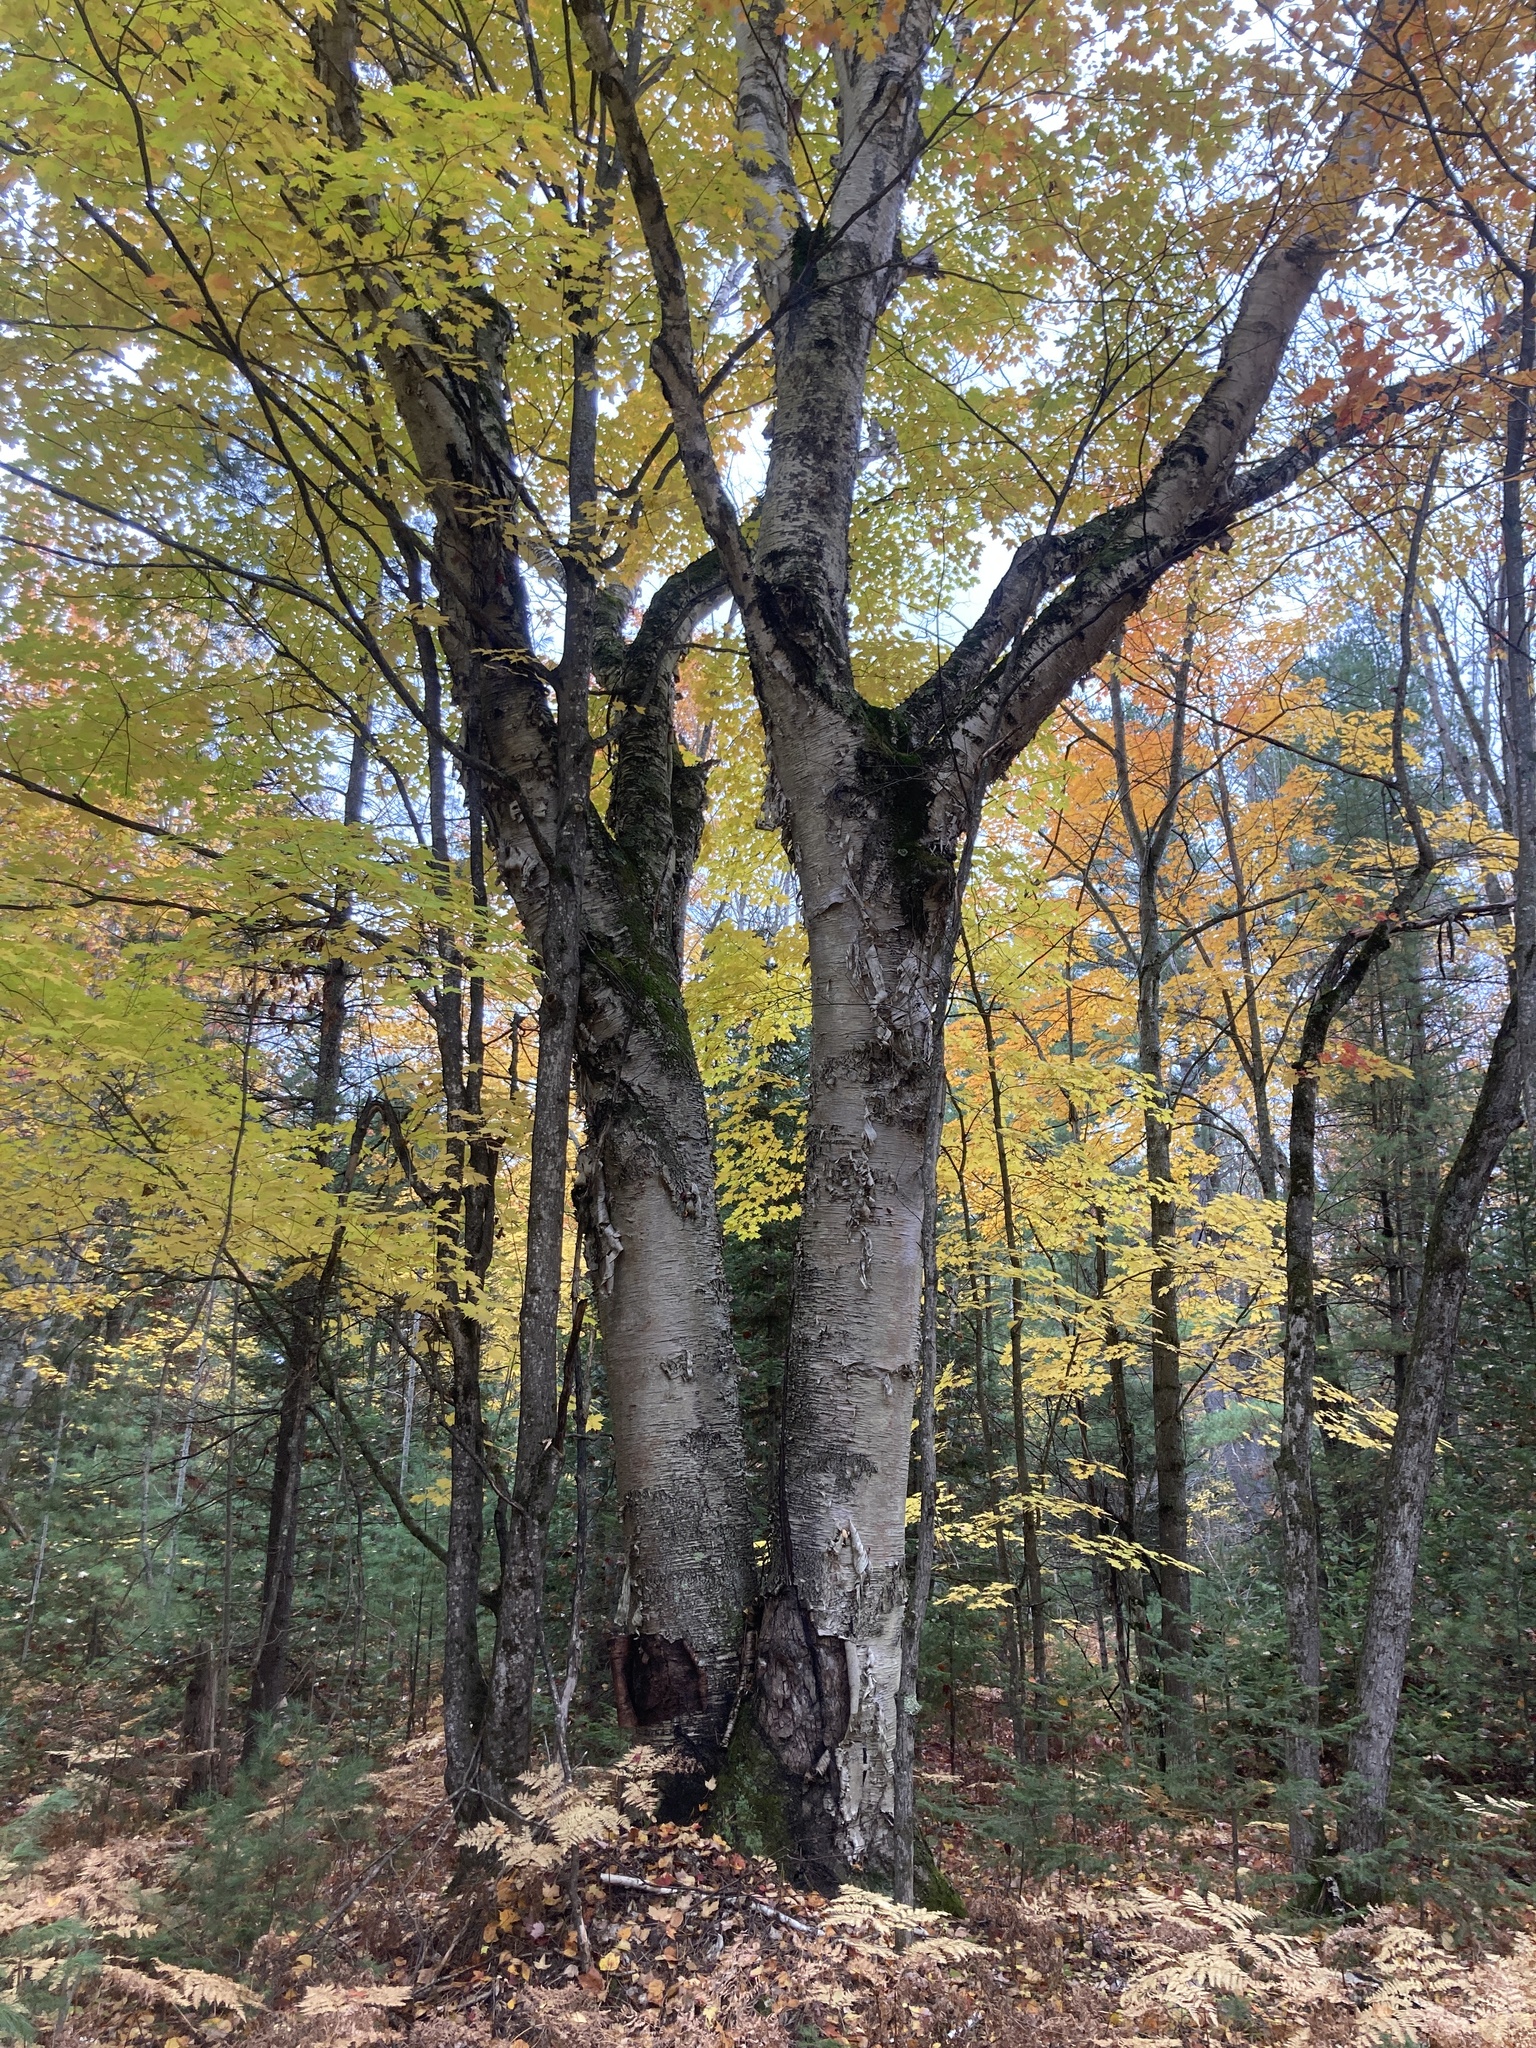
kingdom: Plantae
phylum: Tracheophyta
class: Magnoliopsida
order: Fagales
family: Betulaceae
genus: Betula
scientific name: Betula papyrifera
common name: Paper birch
